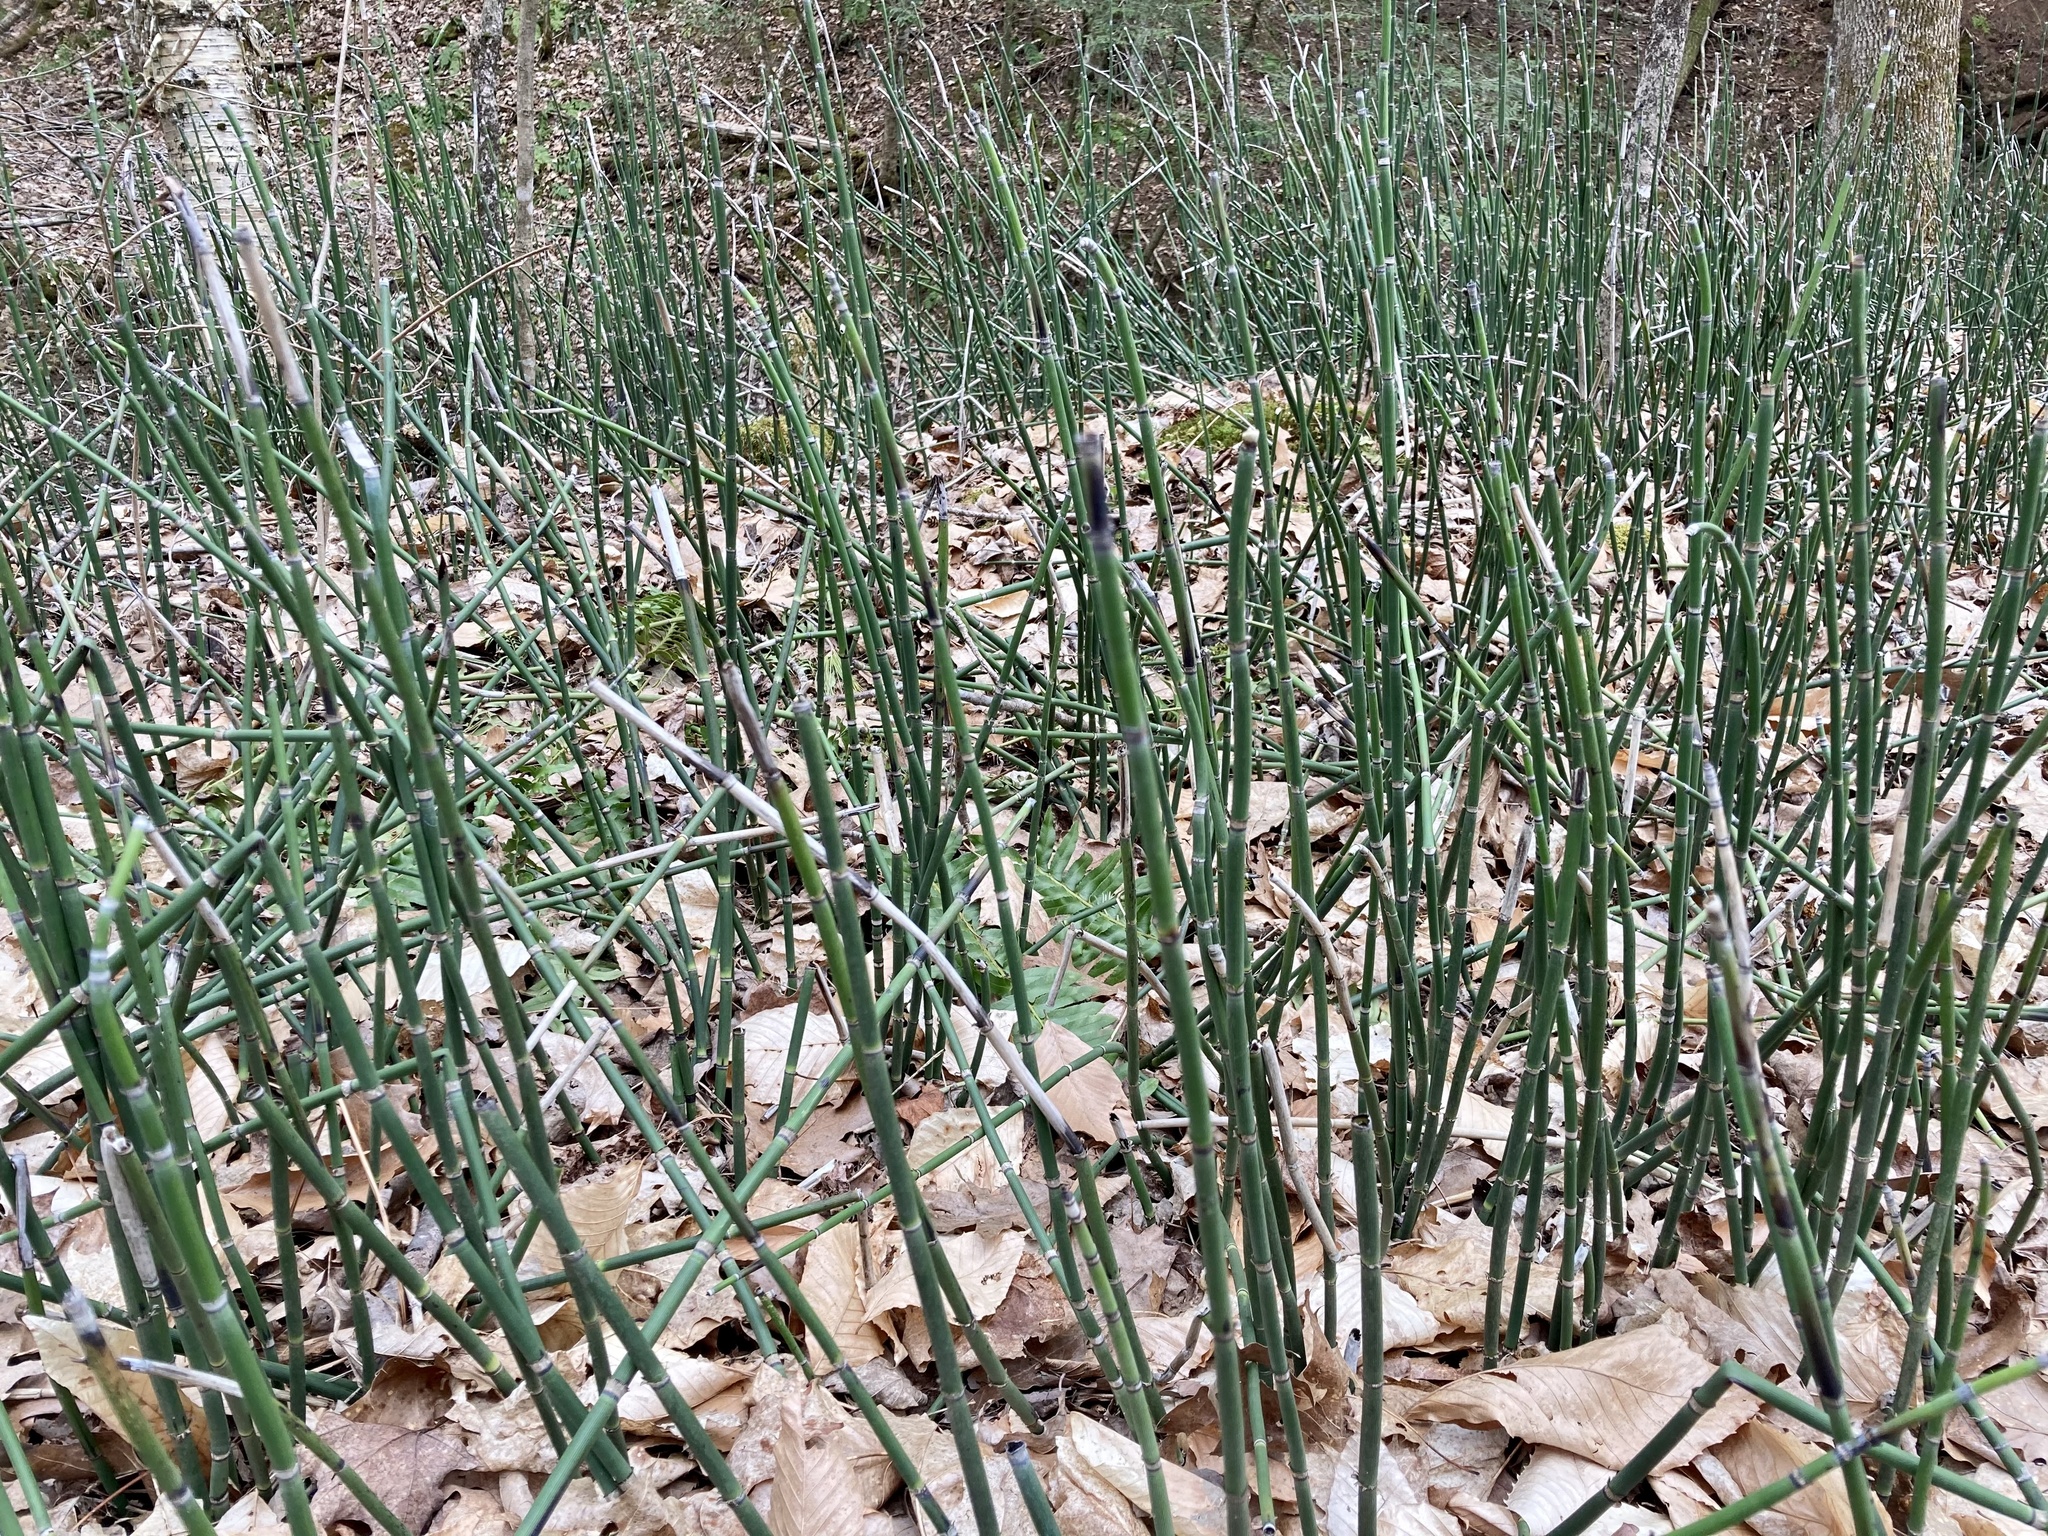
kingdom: Plantae
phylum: Tracheophyta
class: Polypodiopsida
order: Equisetales
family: Equisetaceae
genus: Equisetum
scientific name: Equisetum hyemale
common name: Rough horsetail
